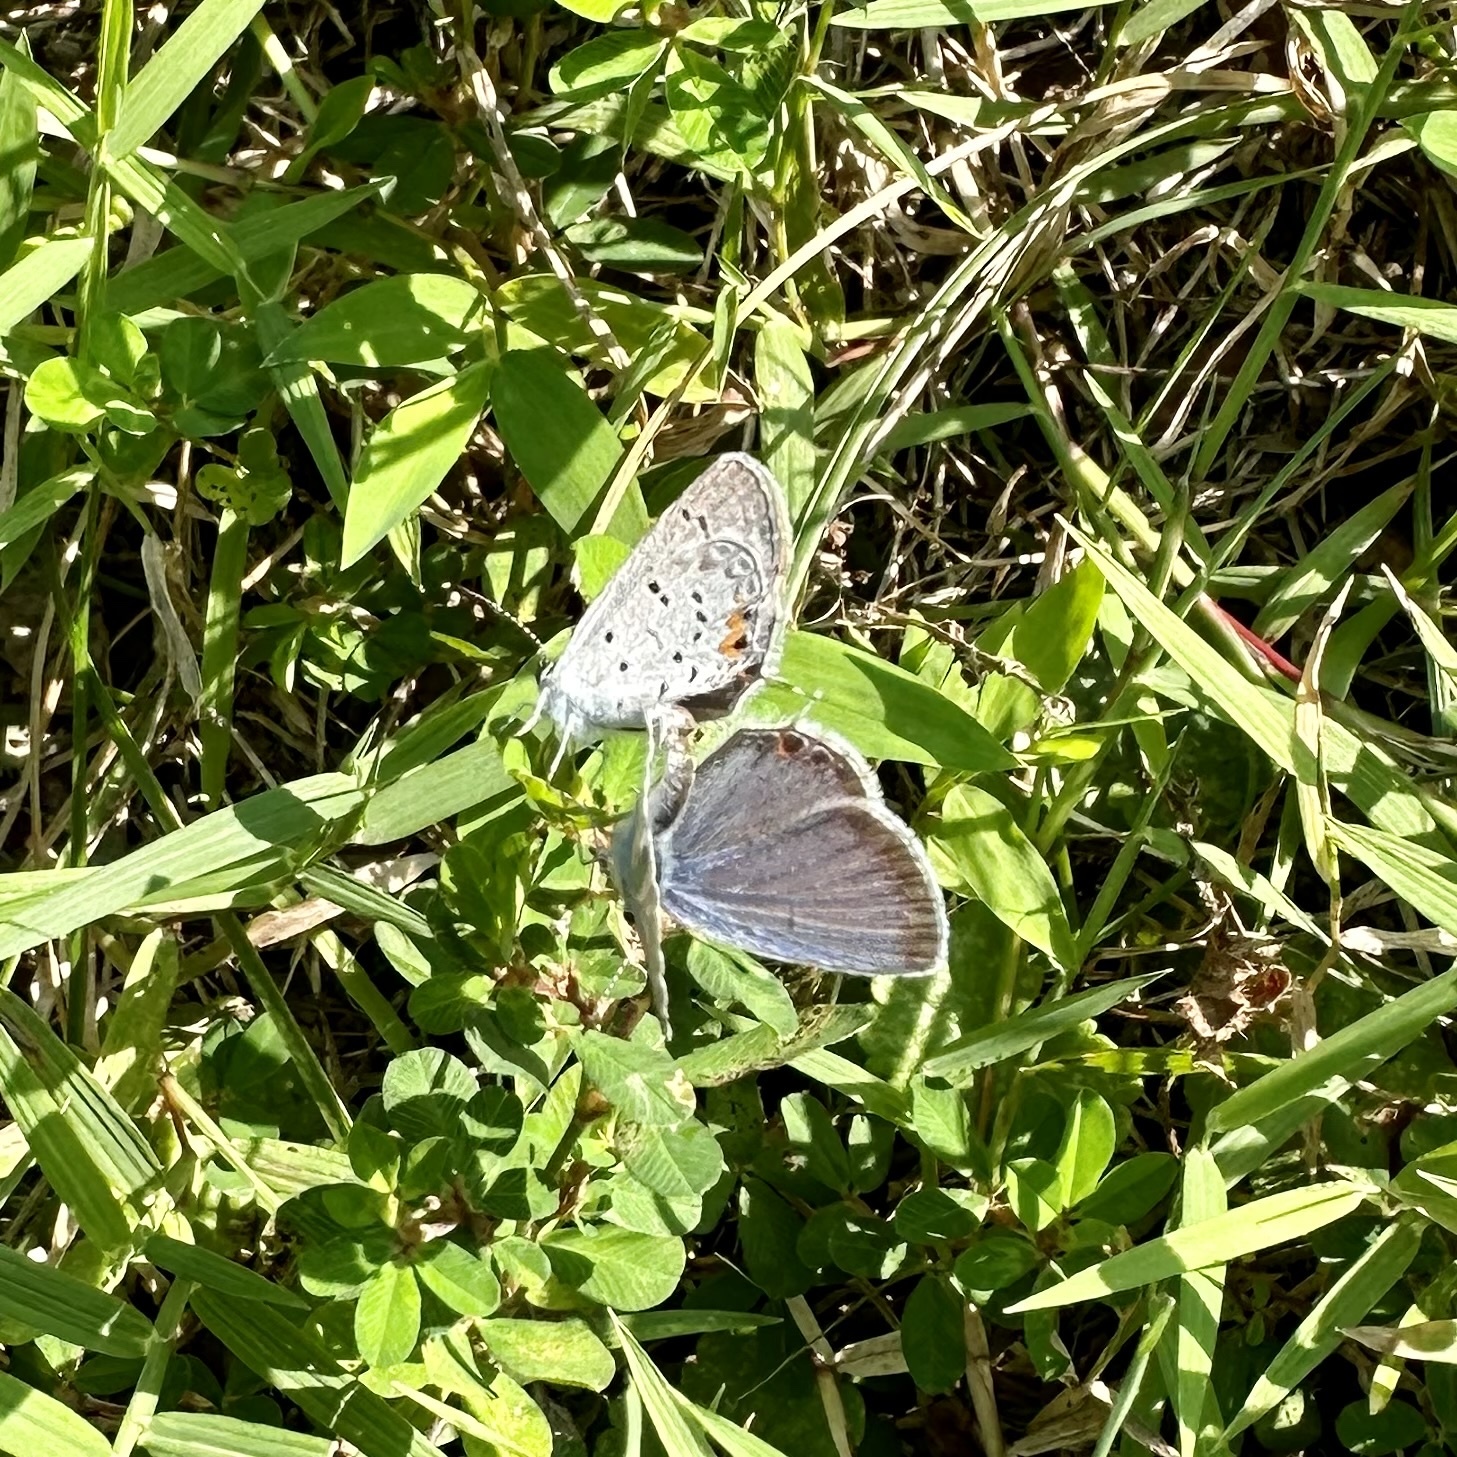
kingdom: Animalia
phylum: Arthropoda
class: Insecta
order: Lepidoptera
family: Lycaenidae
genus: Elkalyce
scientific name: Elkalyce comyntas
